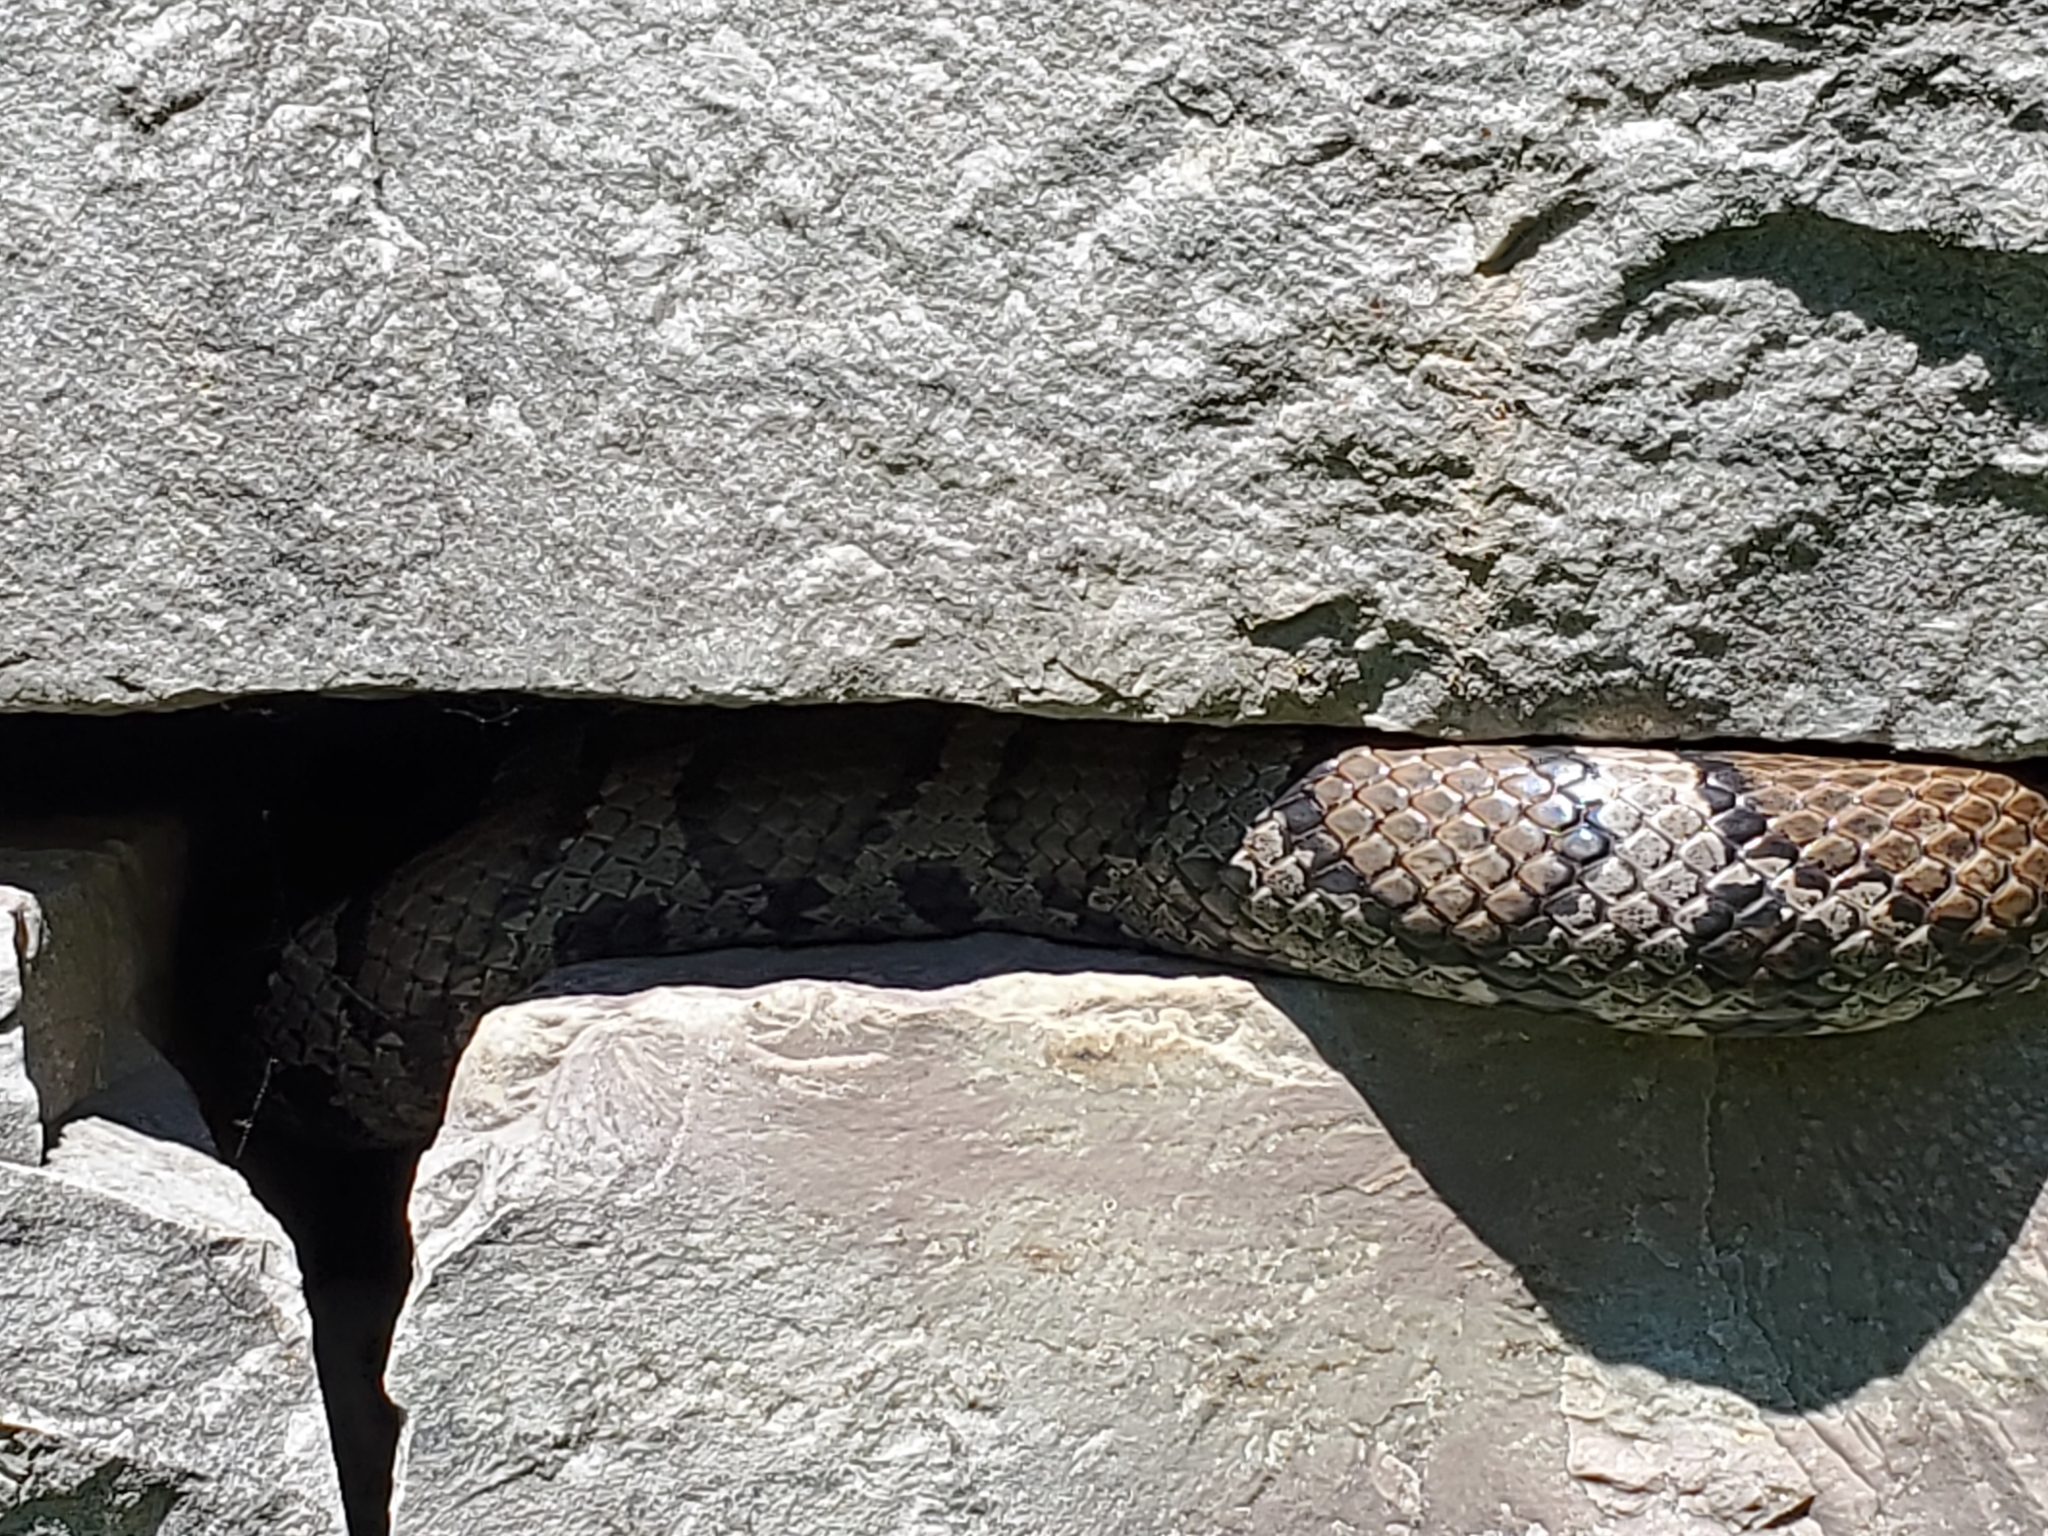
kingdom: Animalia
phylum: Chordata
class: Squamata
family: Colubridae
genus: Lampropeltis
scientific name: Lampropeltis triangulum
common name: Eastern milksnake
